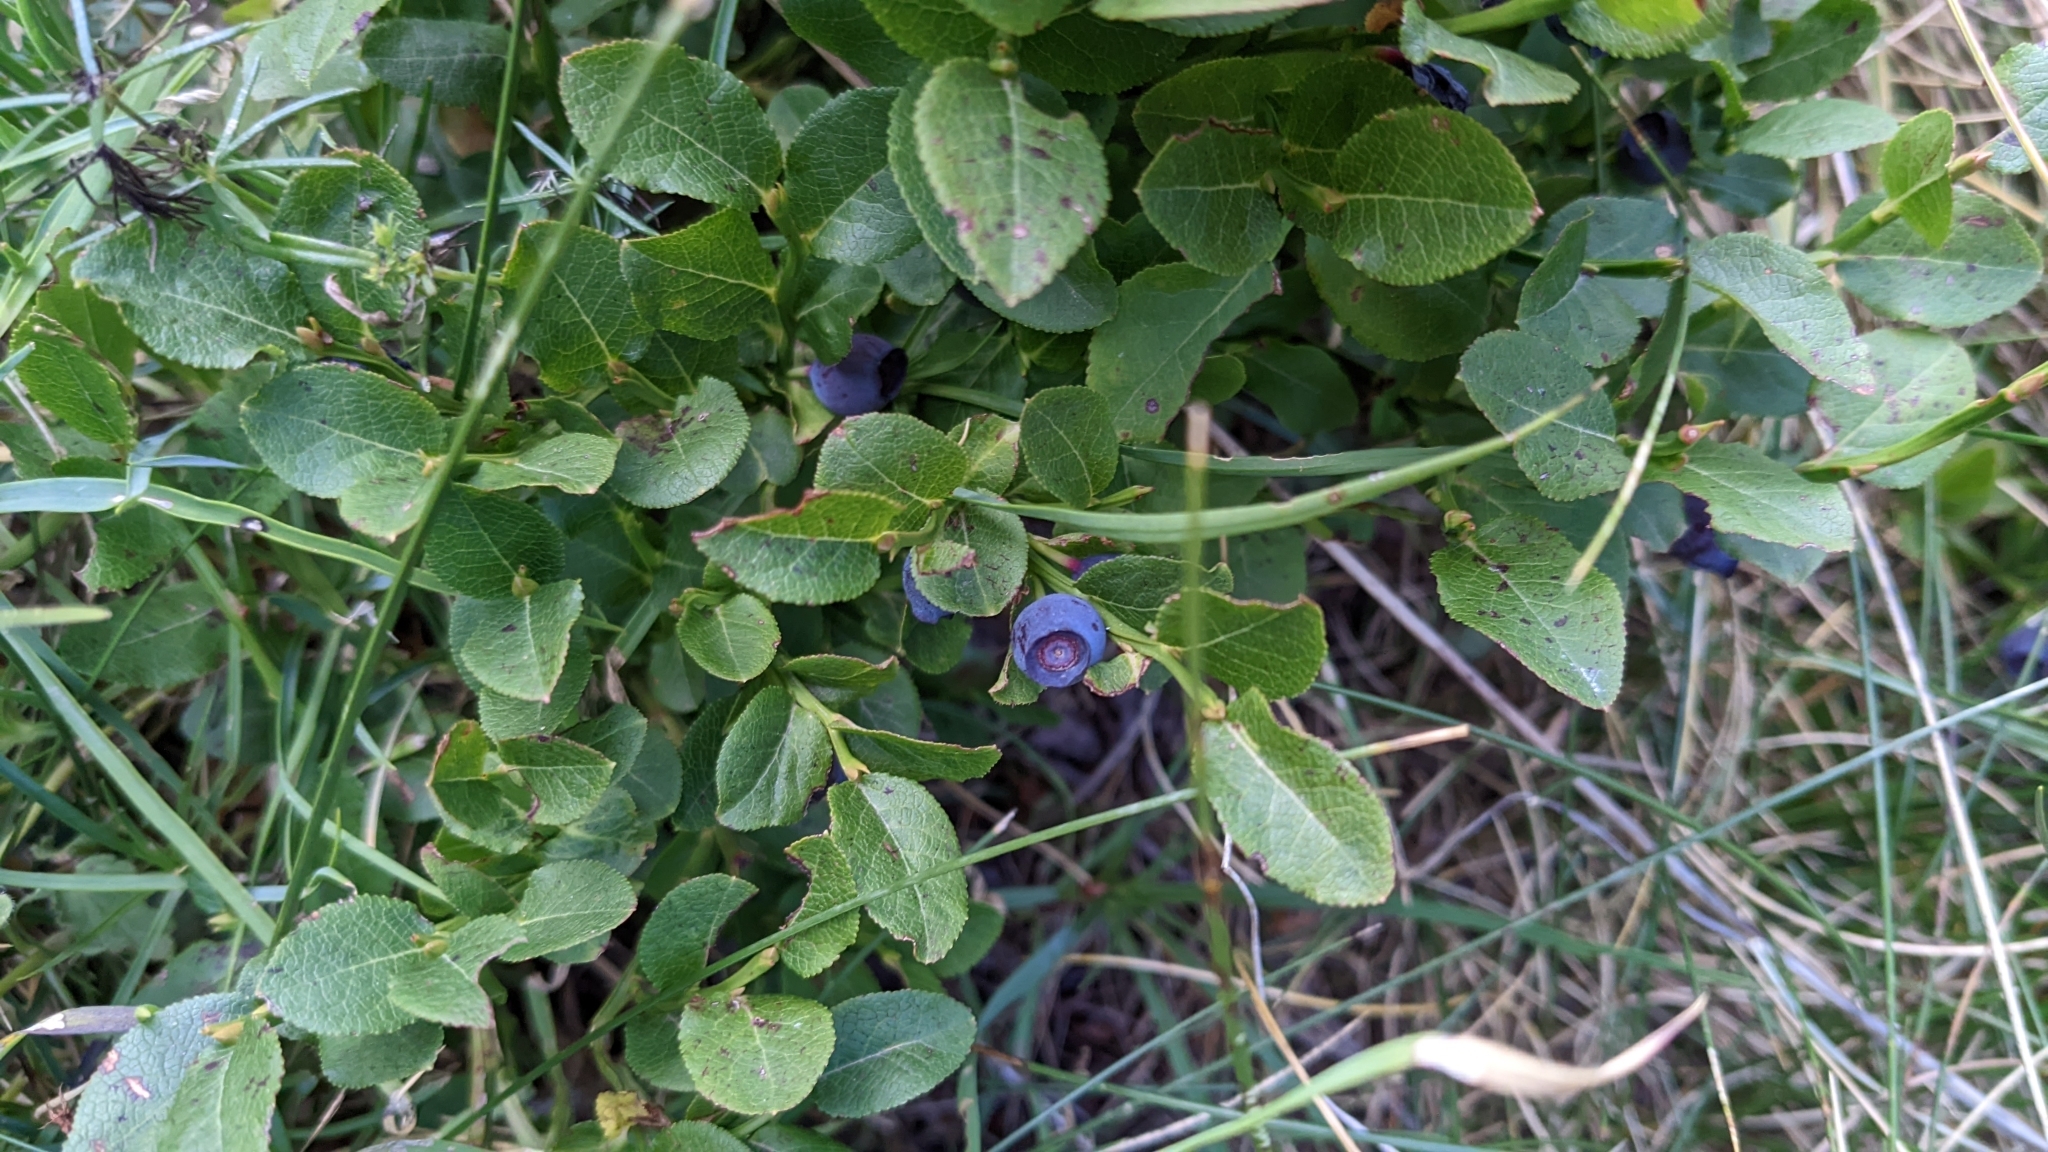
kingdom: Plantae
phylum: Tracheophyta
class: Magnoliopsida
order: Ericales
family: Ericaceae
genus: Vaccinium
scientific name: Vaccinium myrtillus
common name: Bilberry
